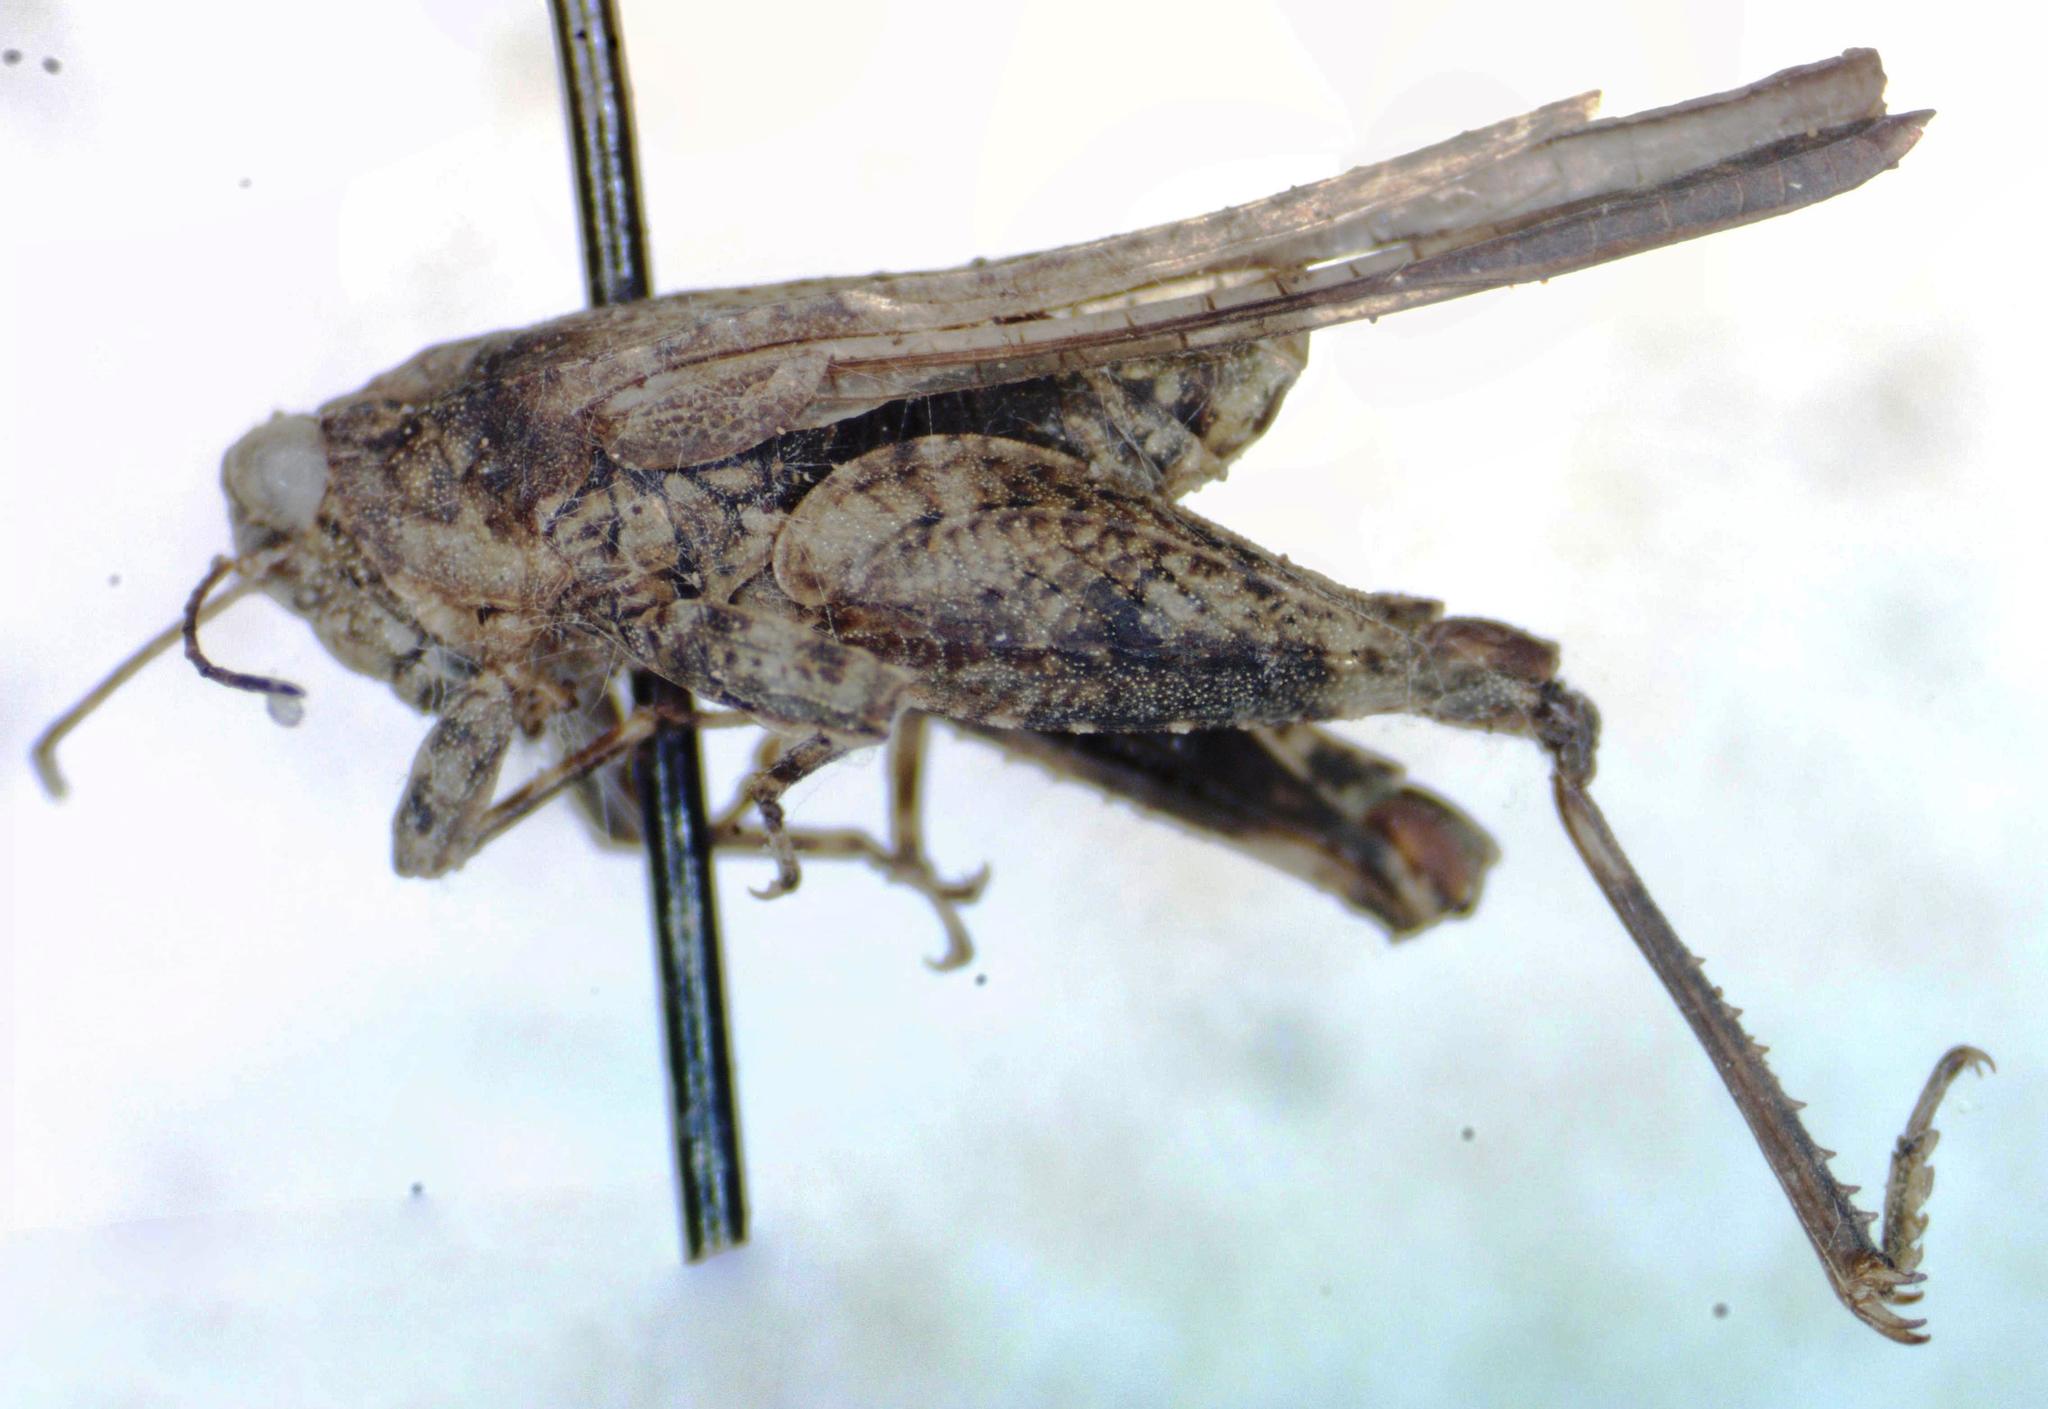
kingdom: Animalia
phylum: Arthropoda
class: Insecta
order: Orthoptera
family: Tetrigidae
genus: Clypeotettix
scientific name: Clypeotettix schochii
